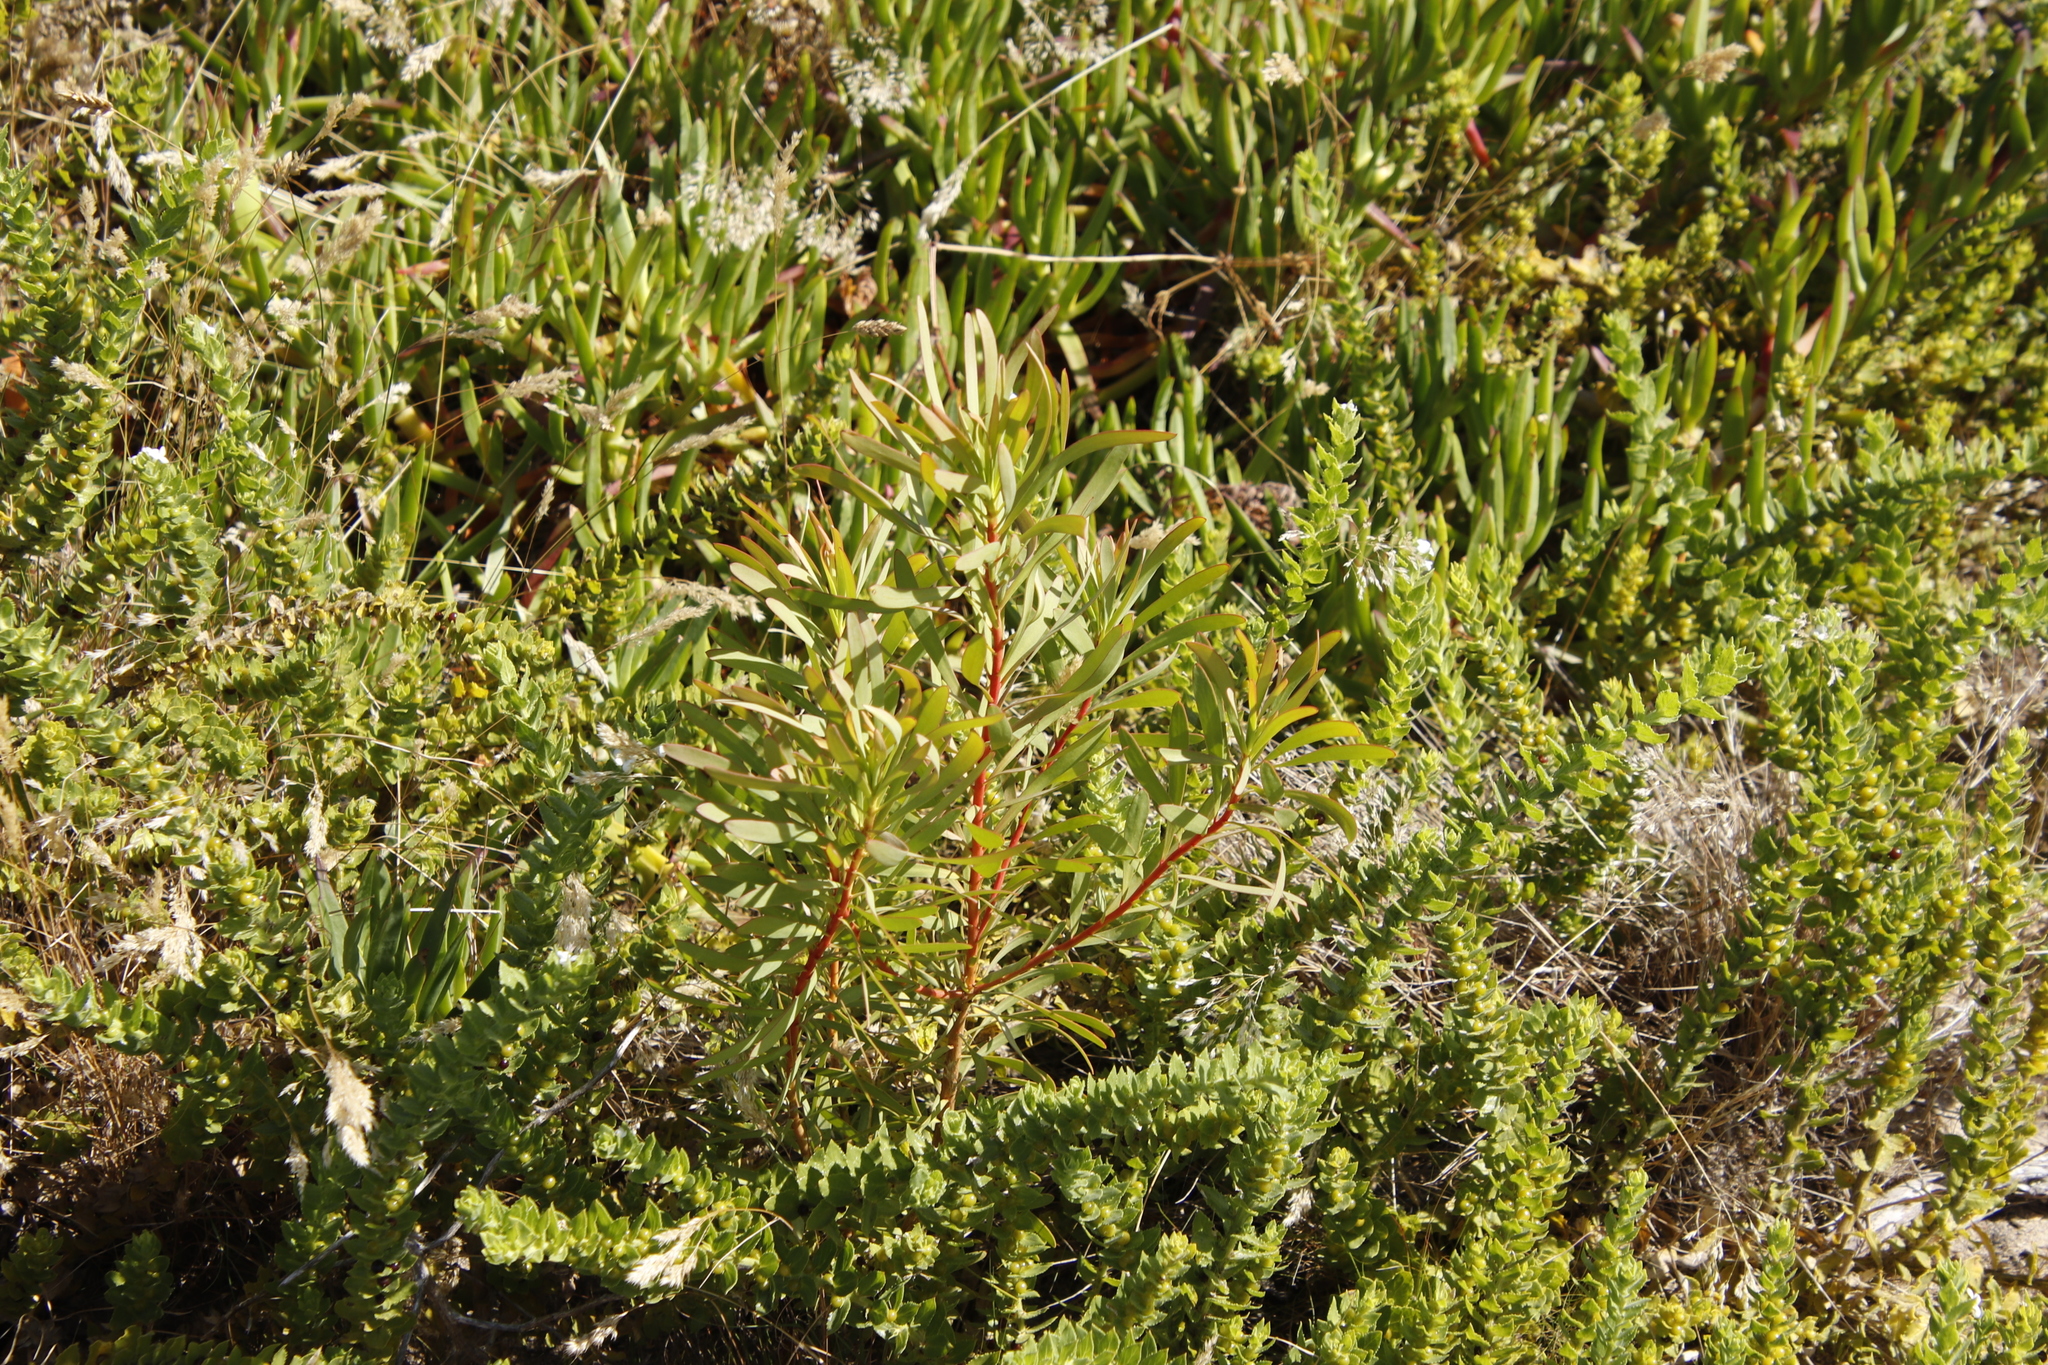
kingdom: Plantae
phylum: Tracheophyta
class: Magnoliopsida
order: Proteales
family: Proteaceae
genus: Protea
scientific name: Protea repens
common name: Sugarbush
